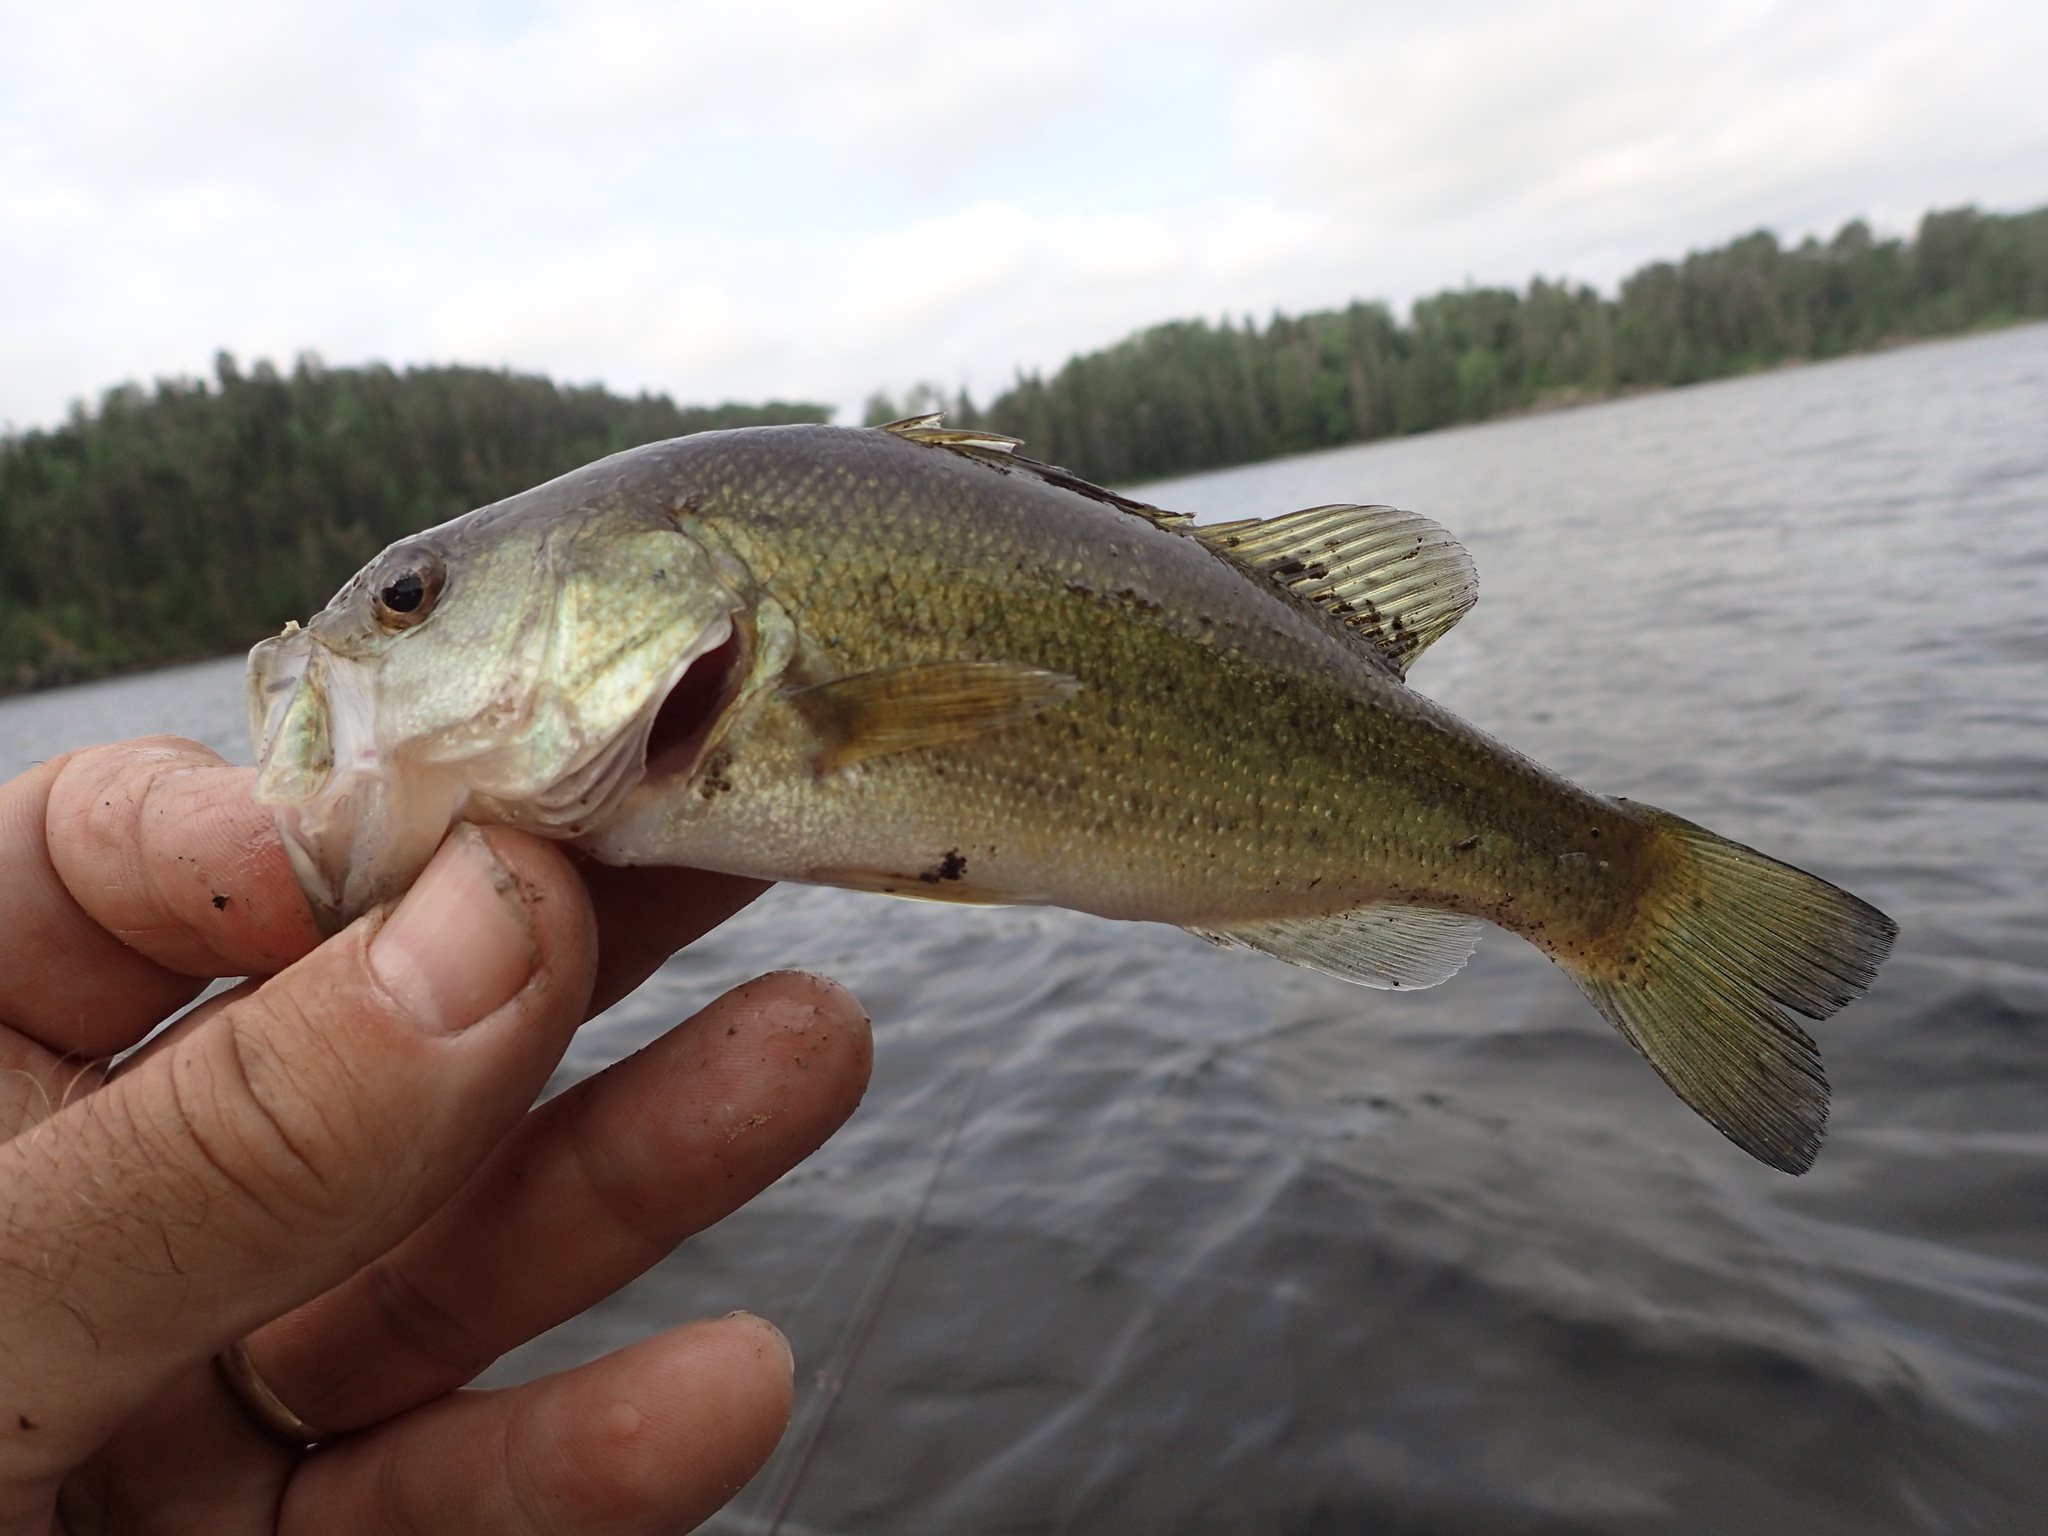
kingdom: Animalia
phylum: Chordata
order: Perciformes
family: Centrarchidae
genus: Micropterus
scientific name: Micropterus
